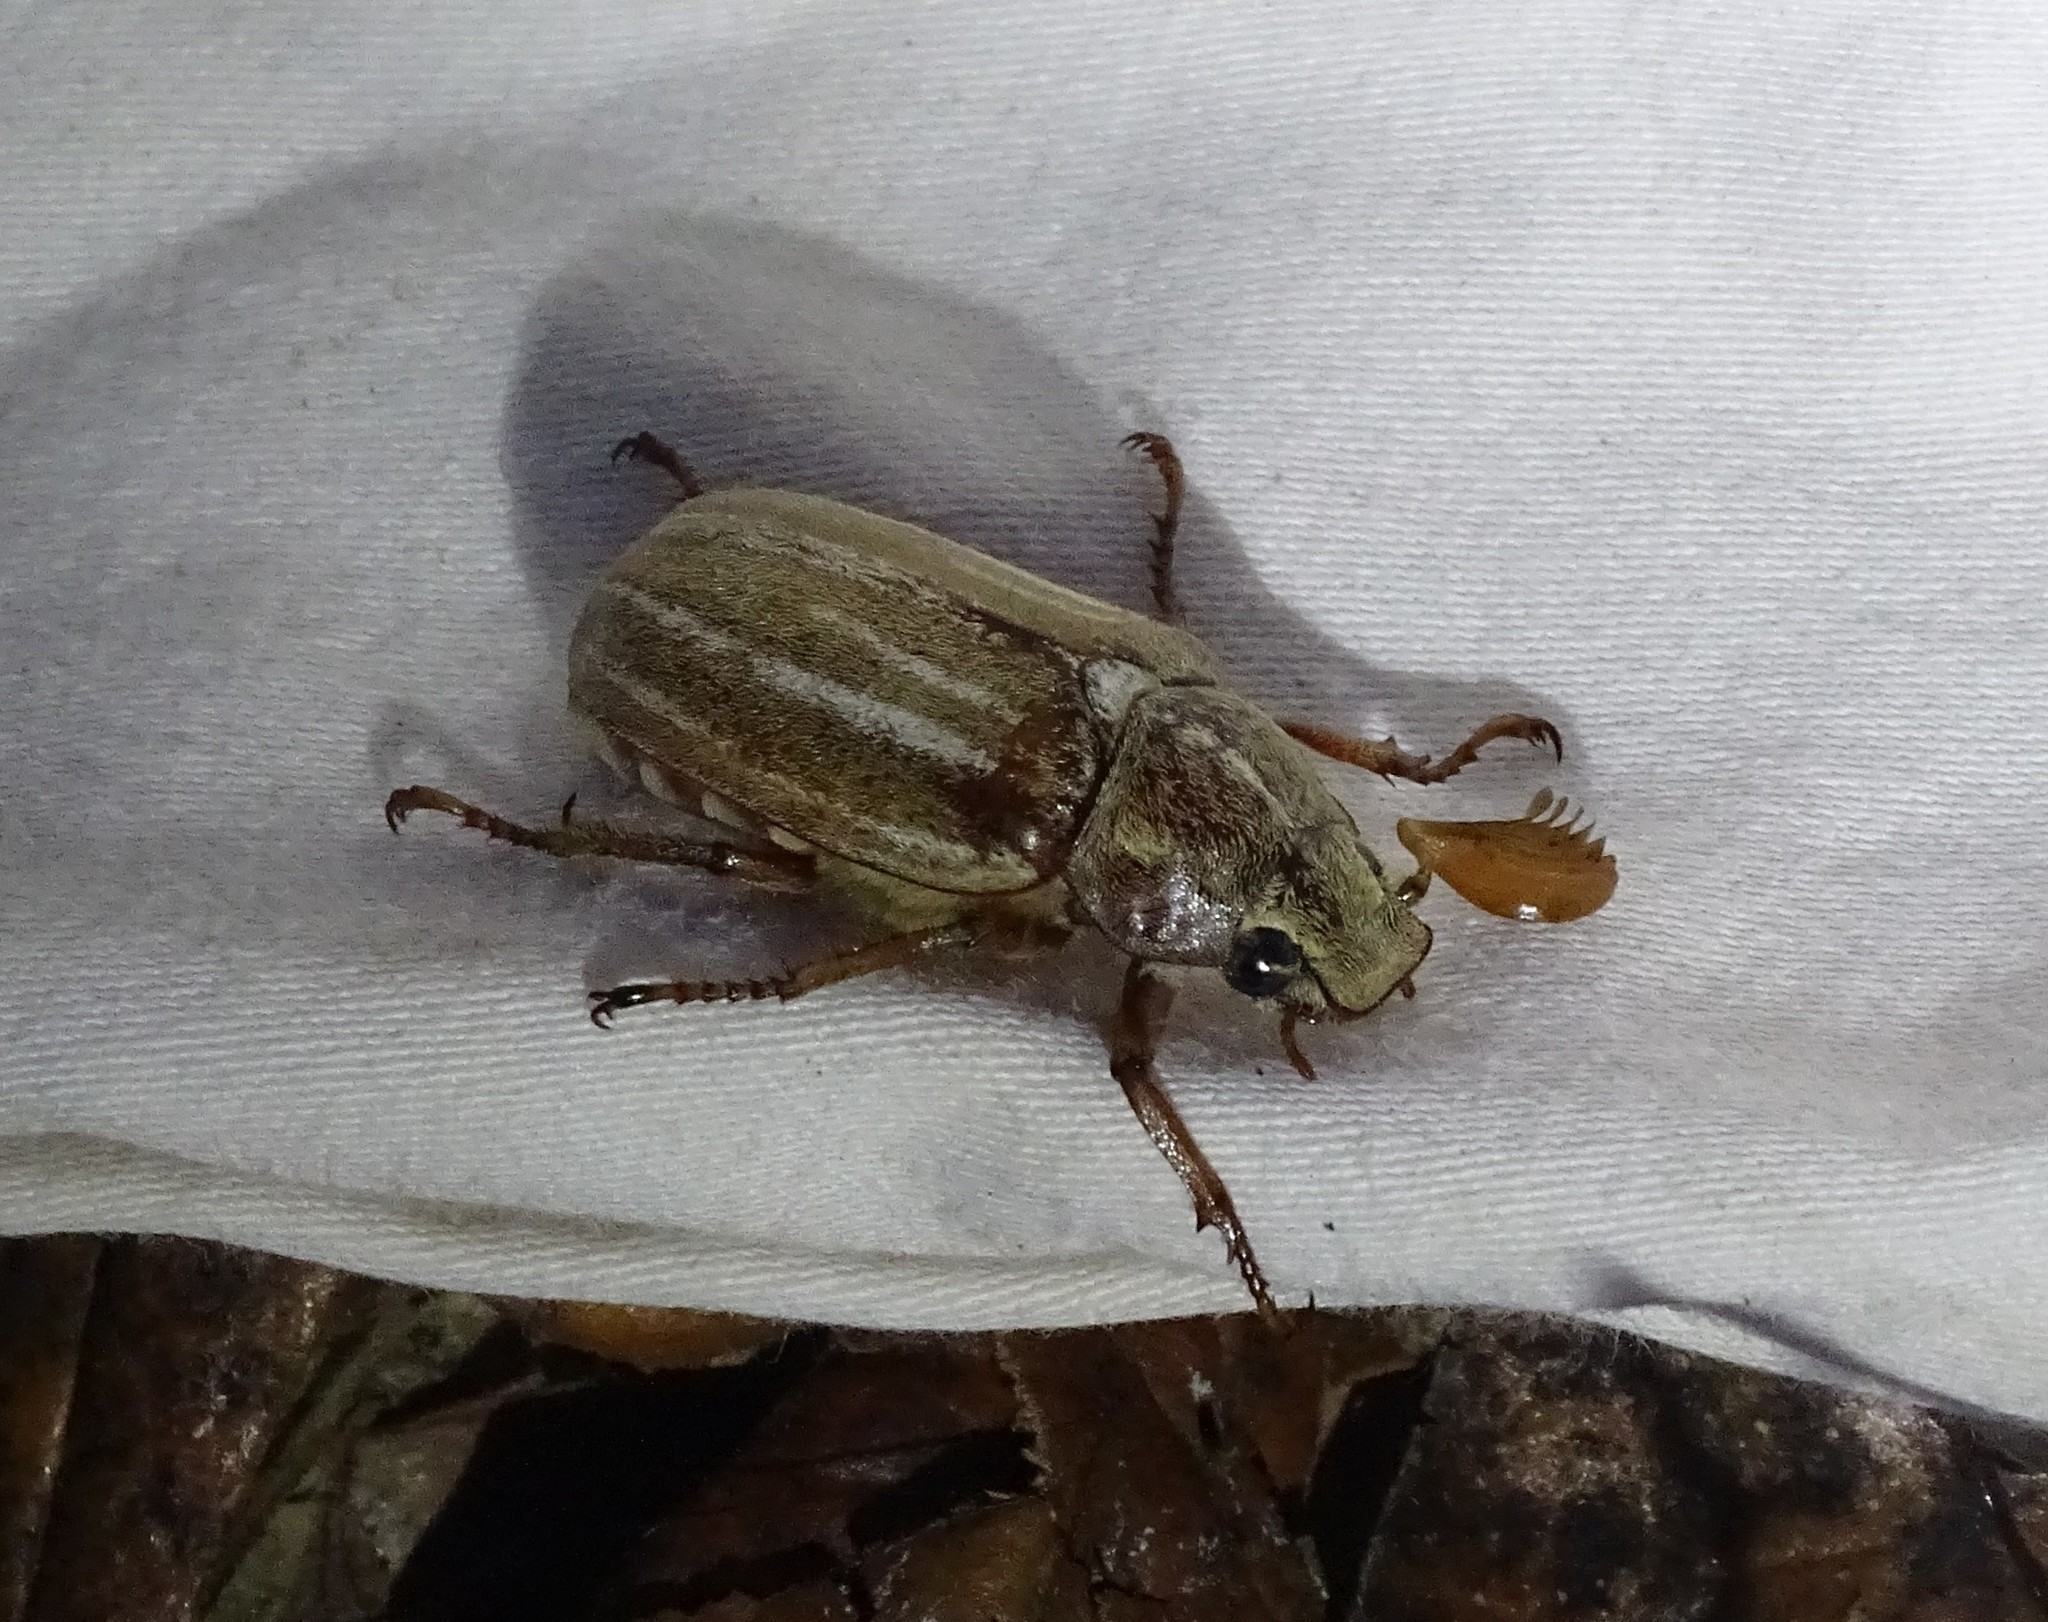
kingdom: Animalia
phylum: Arthropoda
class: Insecta
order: Coleoptera
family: Scarabaeidae
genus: Polyphylla
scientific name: Polyphylla occidentalis
